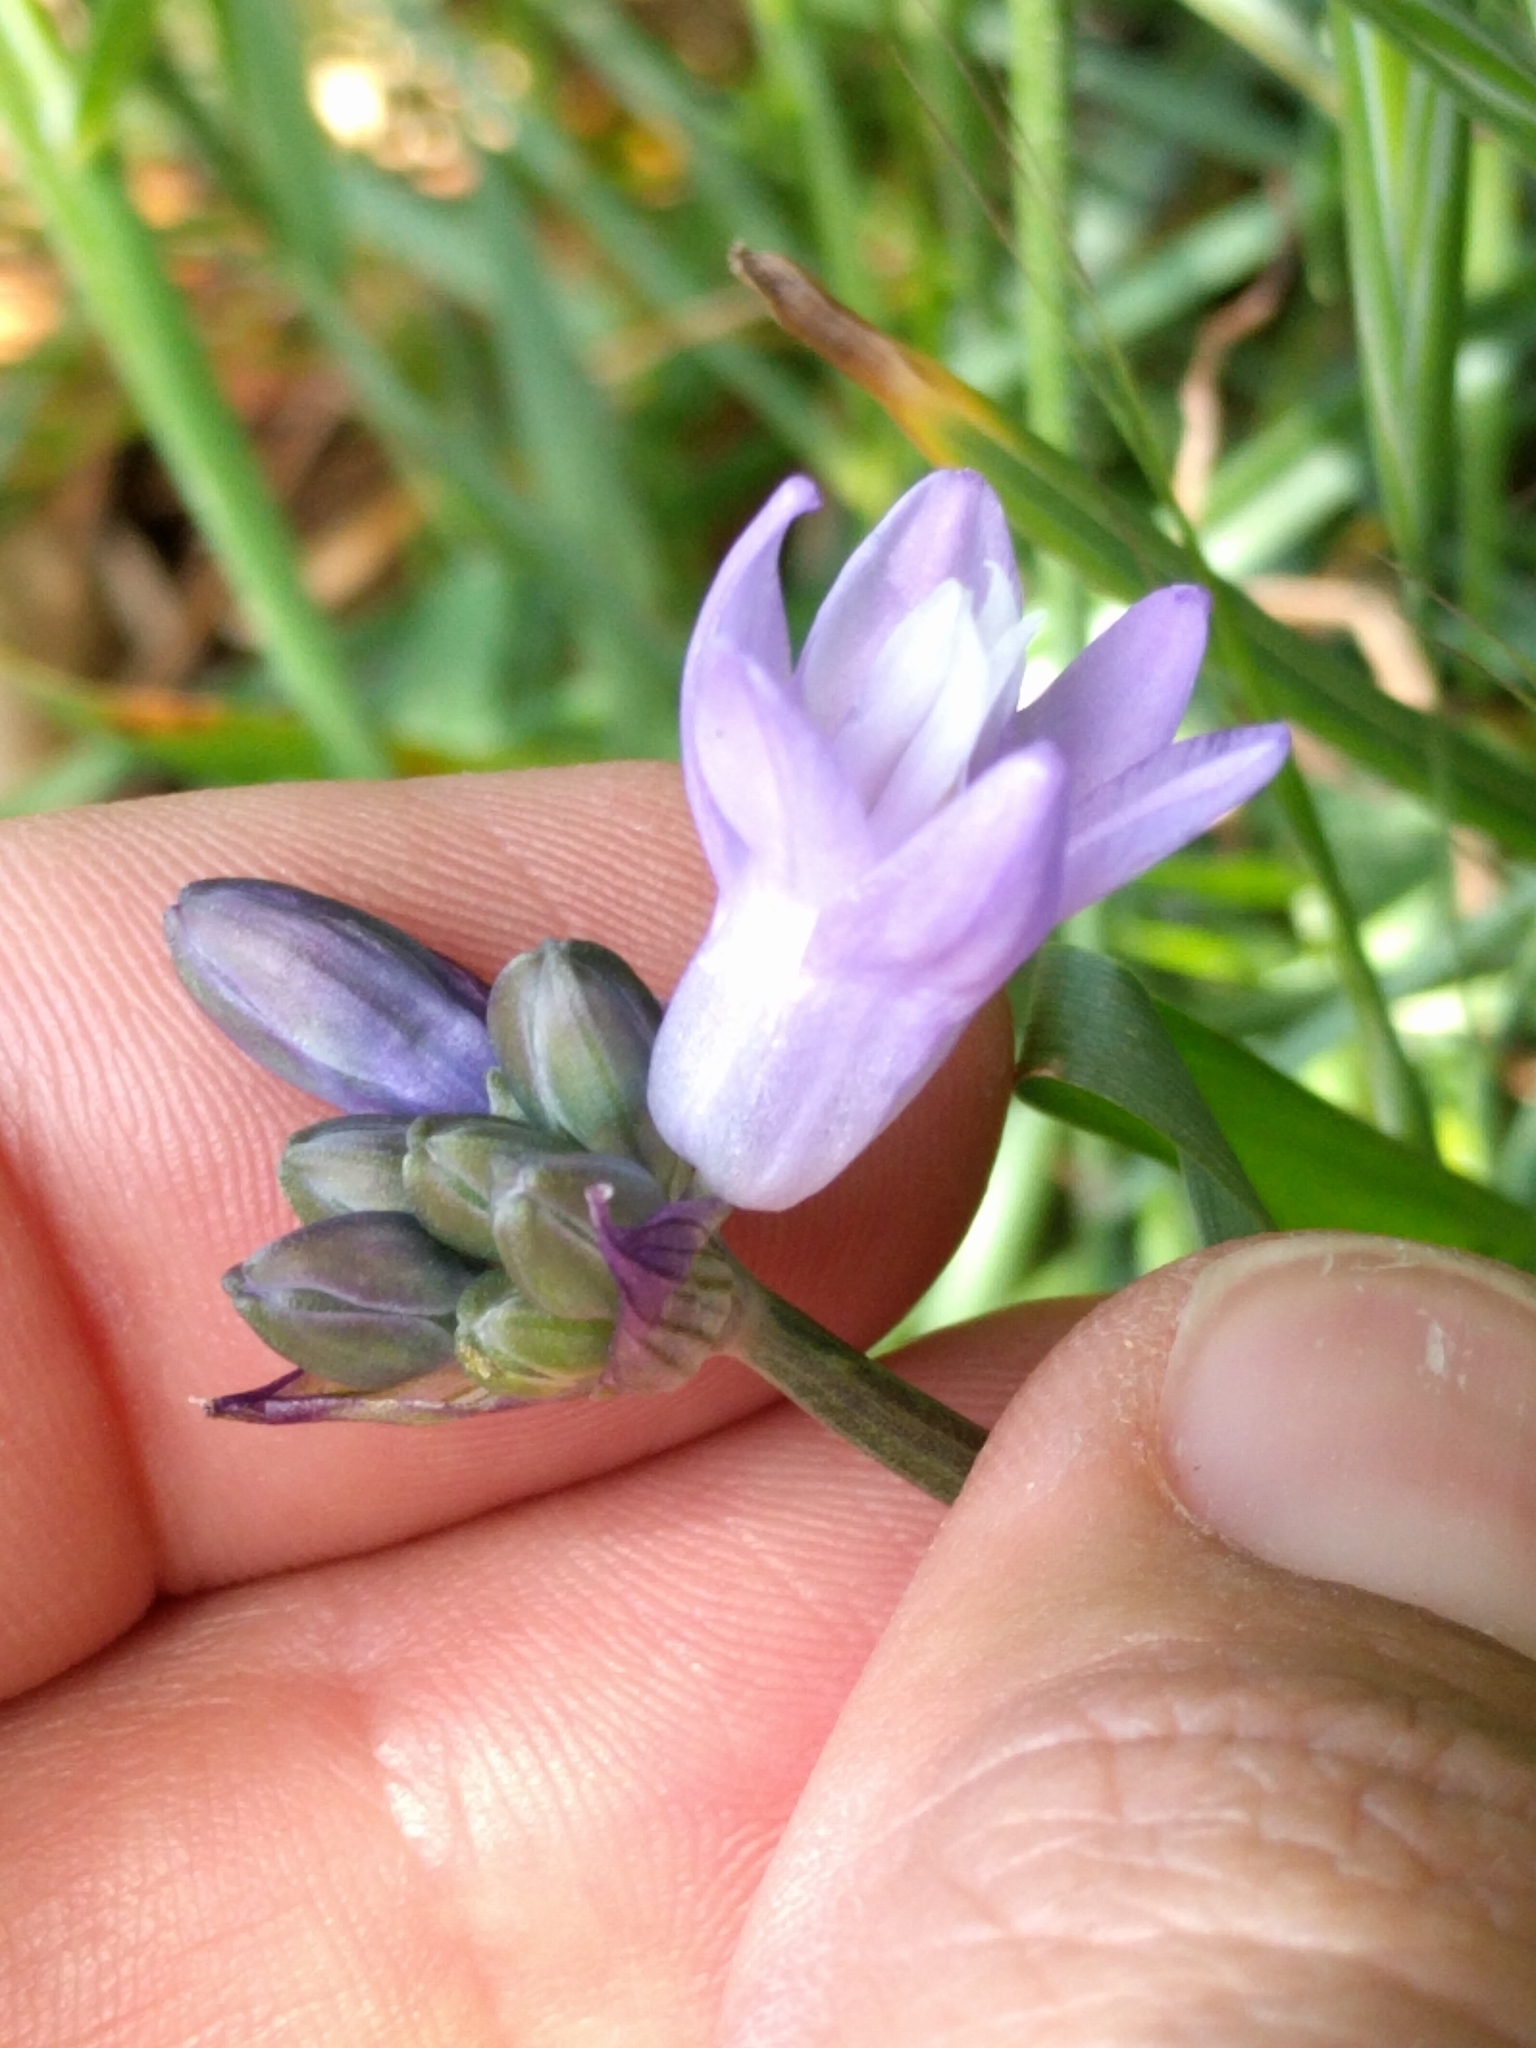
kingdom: Plantae
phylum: Tracheophyta
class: Liliopsida
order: Asparagales
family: Asparagaceae
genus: Dipterostemon
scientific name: Dipterostemon capitatus
